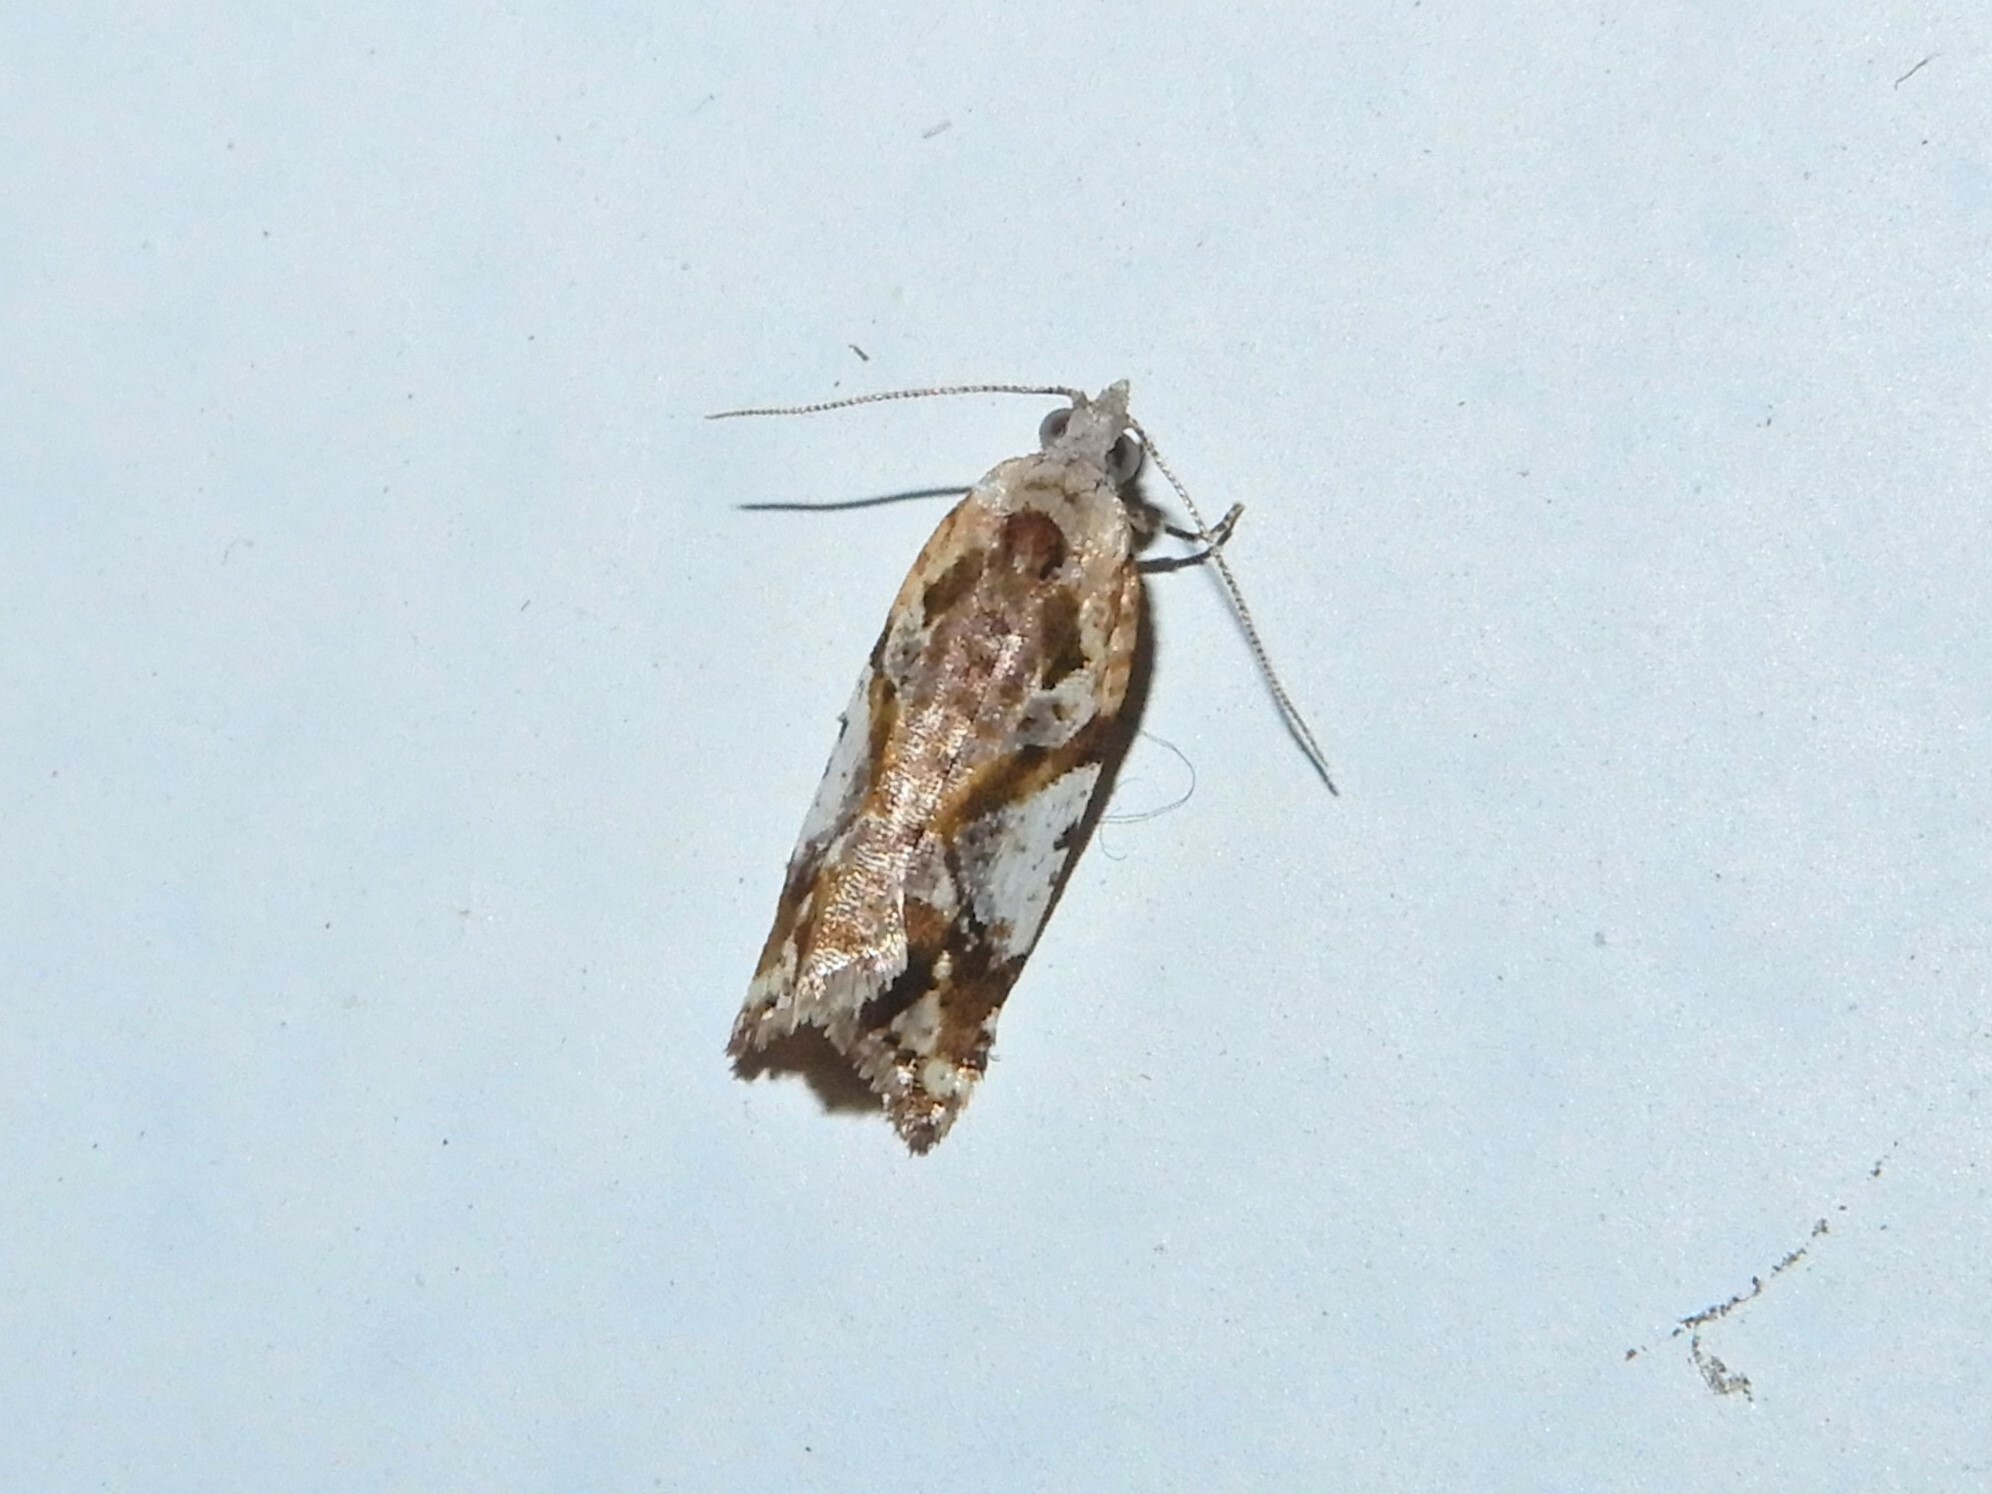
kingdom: Animalia
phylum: Arthropoda
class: Insecta
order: Lepidoptera
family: Tortricidae
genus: Pyrgotis
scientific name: Pyrgotis plagiatana
